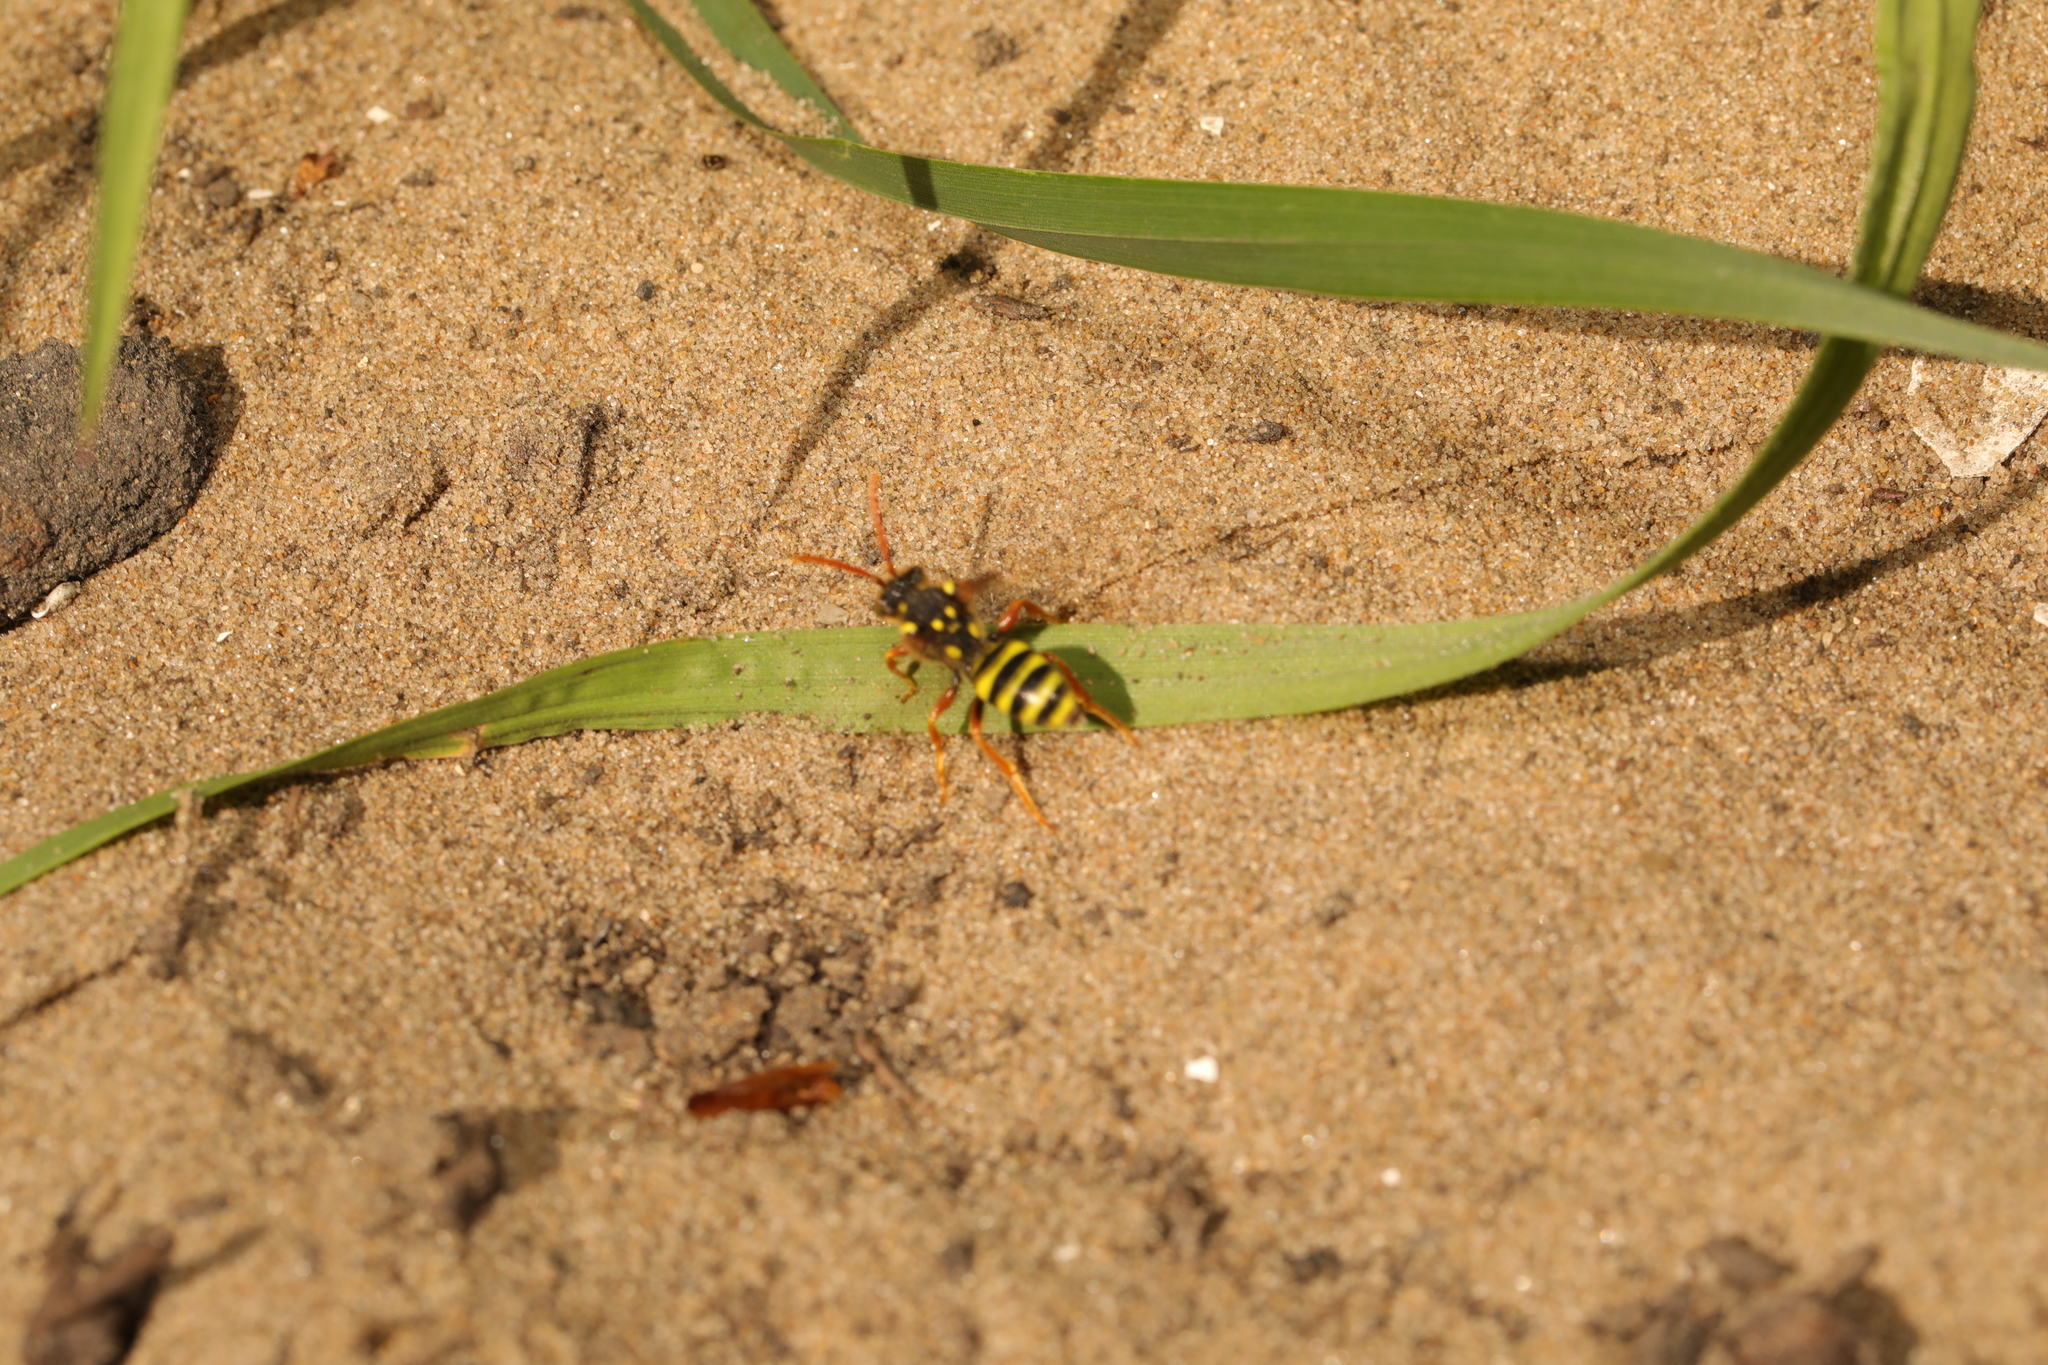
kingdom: Animalia
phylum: Arthropoda
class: Insecta
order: Hymenoptera
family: Apidae
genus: Nomada
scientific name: Nomada goodeniana
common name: Gooden's nomad bee
